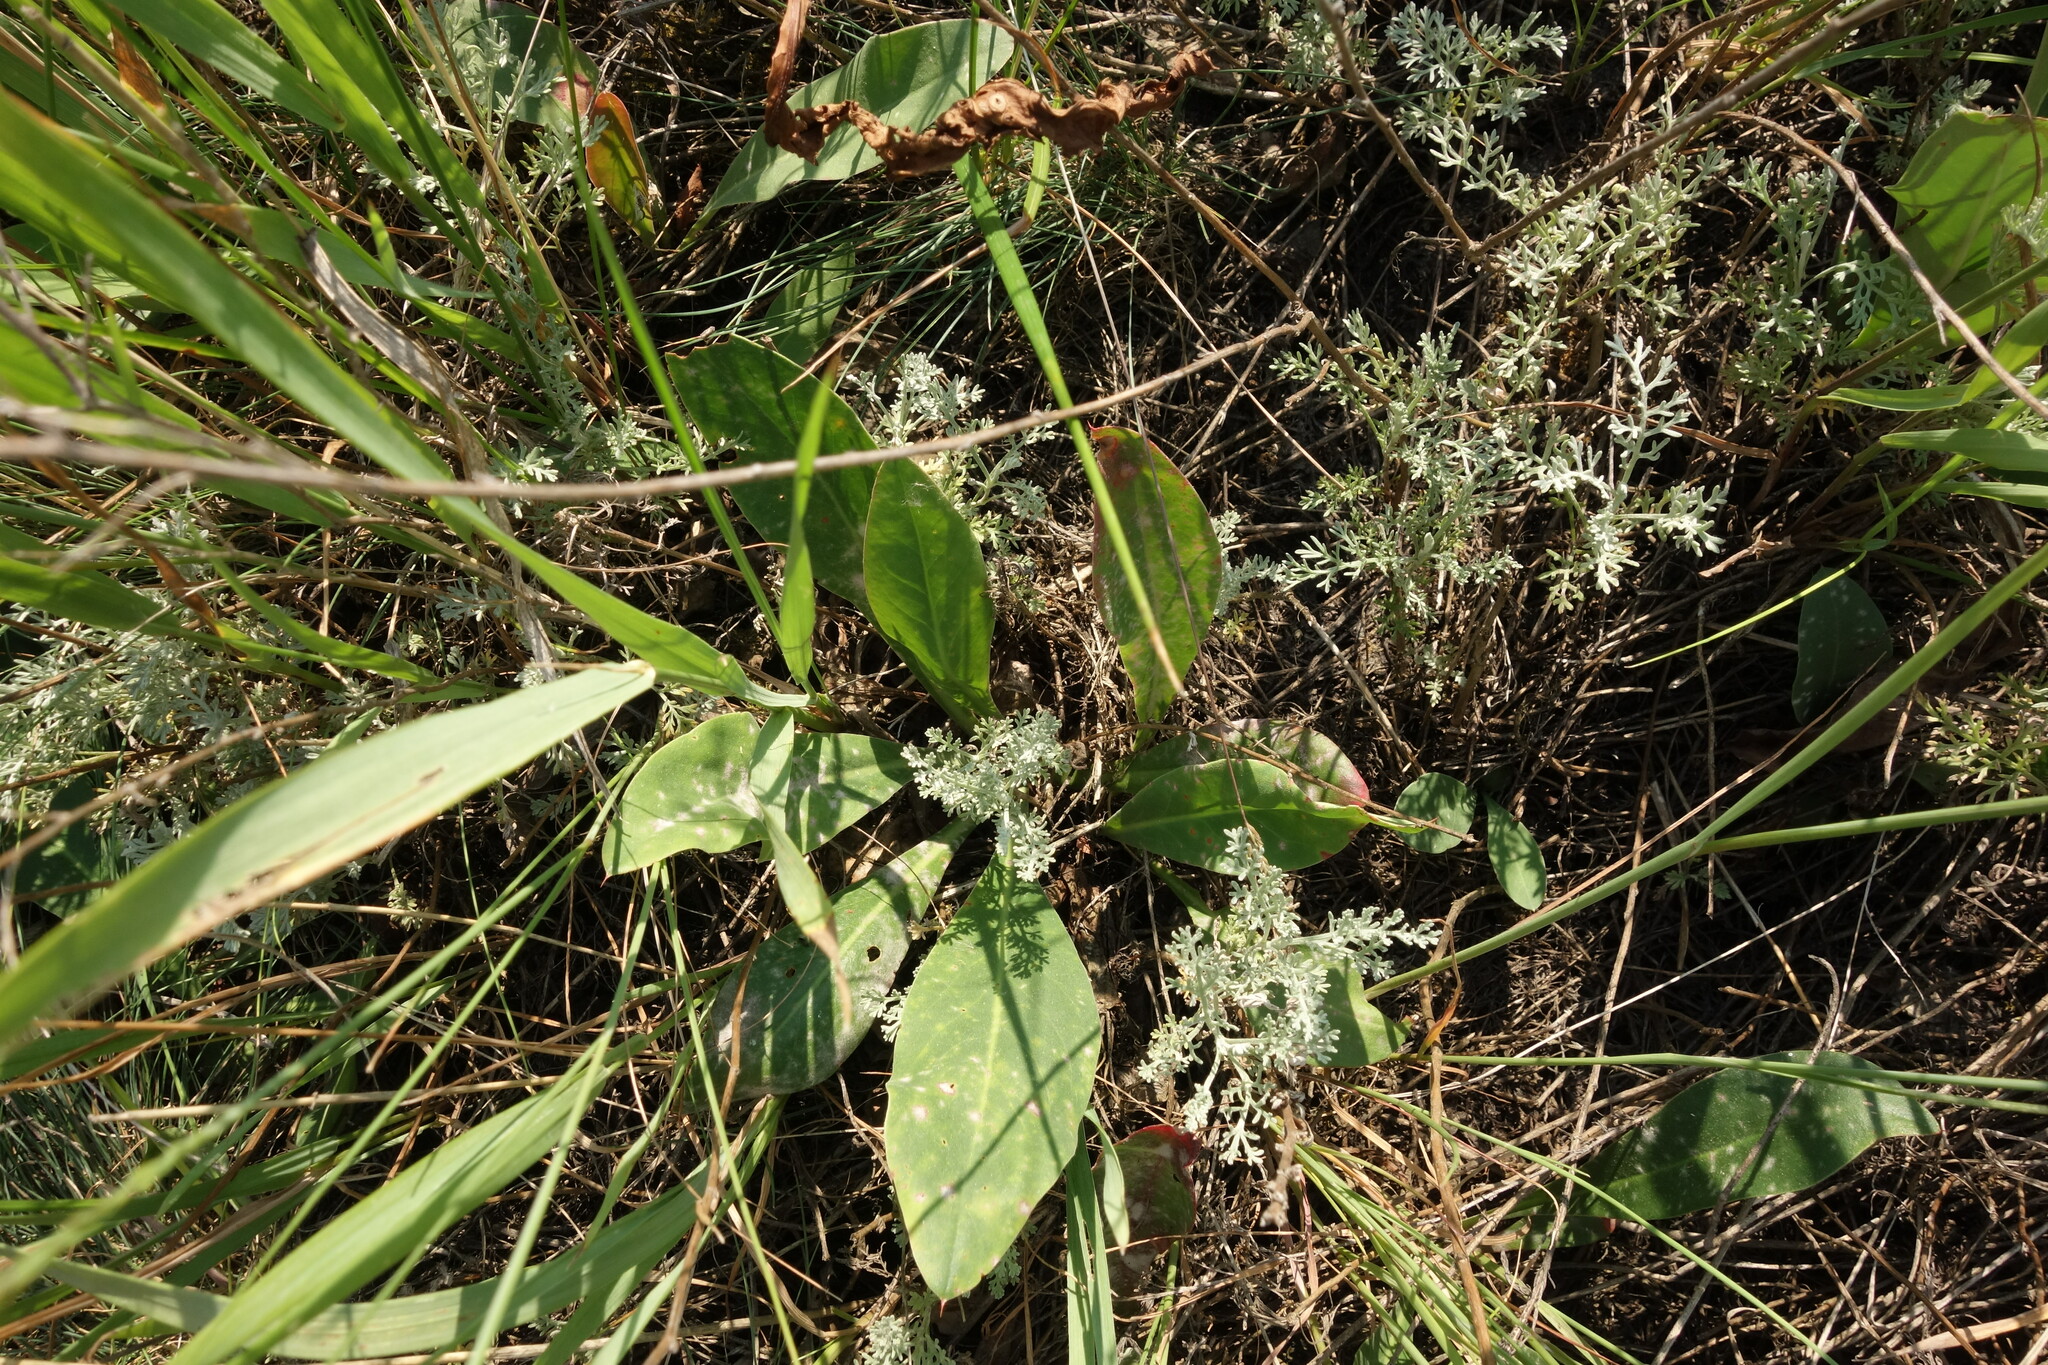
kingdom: Plantae
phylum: Tracheophyta
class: Magnoliopsida
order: Caryophyllales
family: Plumbaginaceae
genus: Limonium
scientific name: Limonium tomentellum
